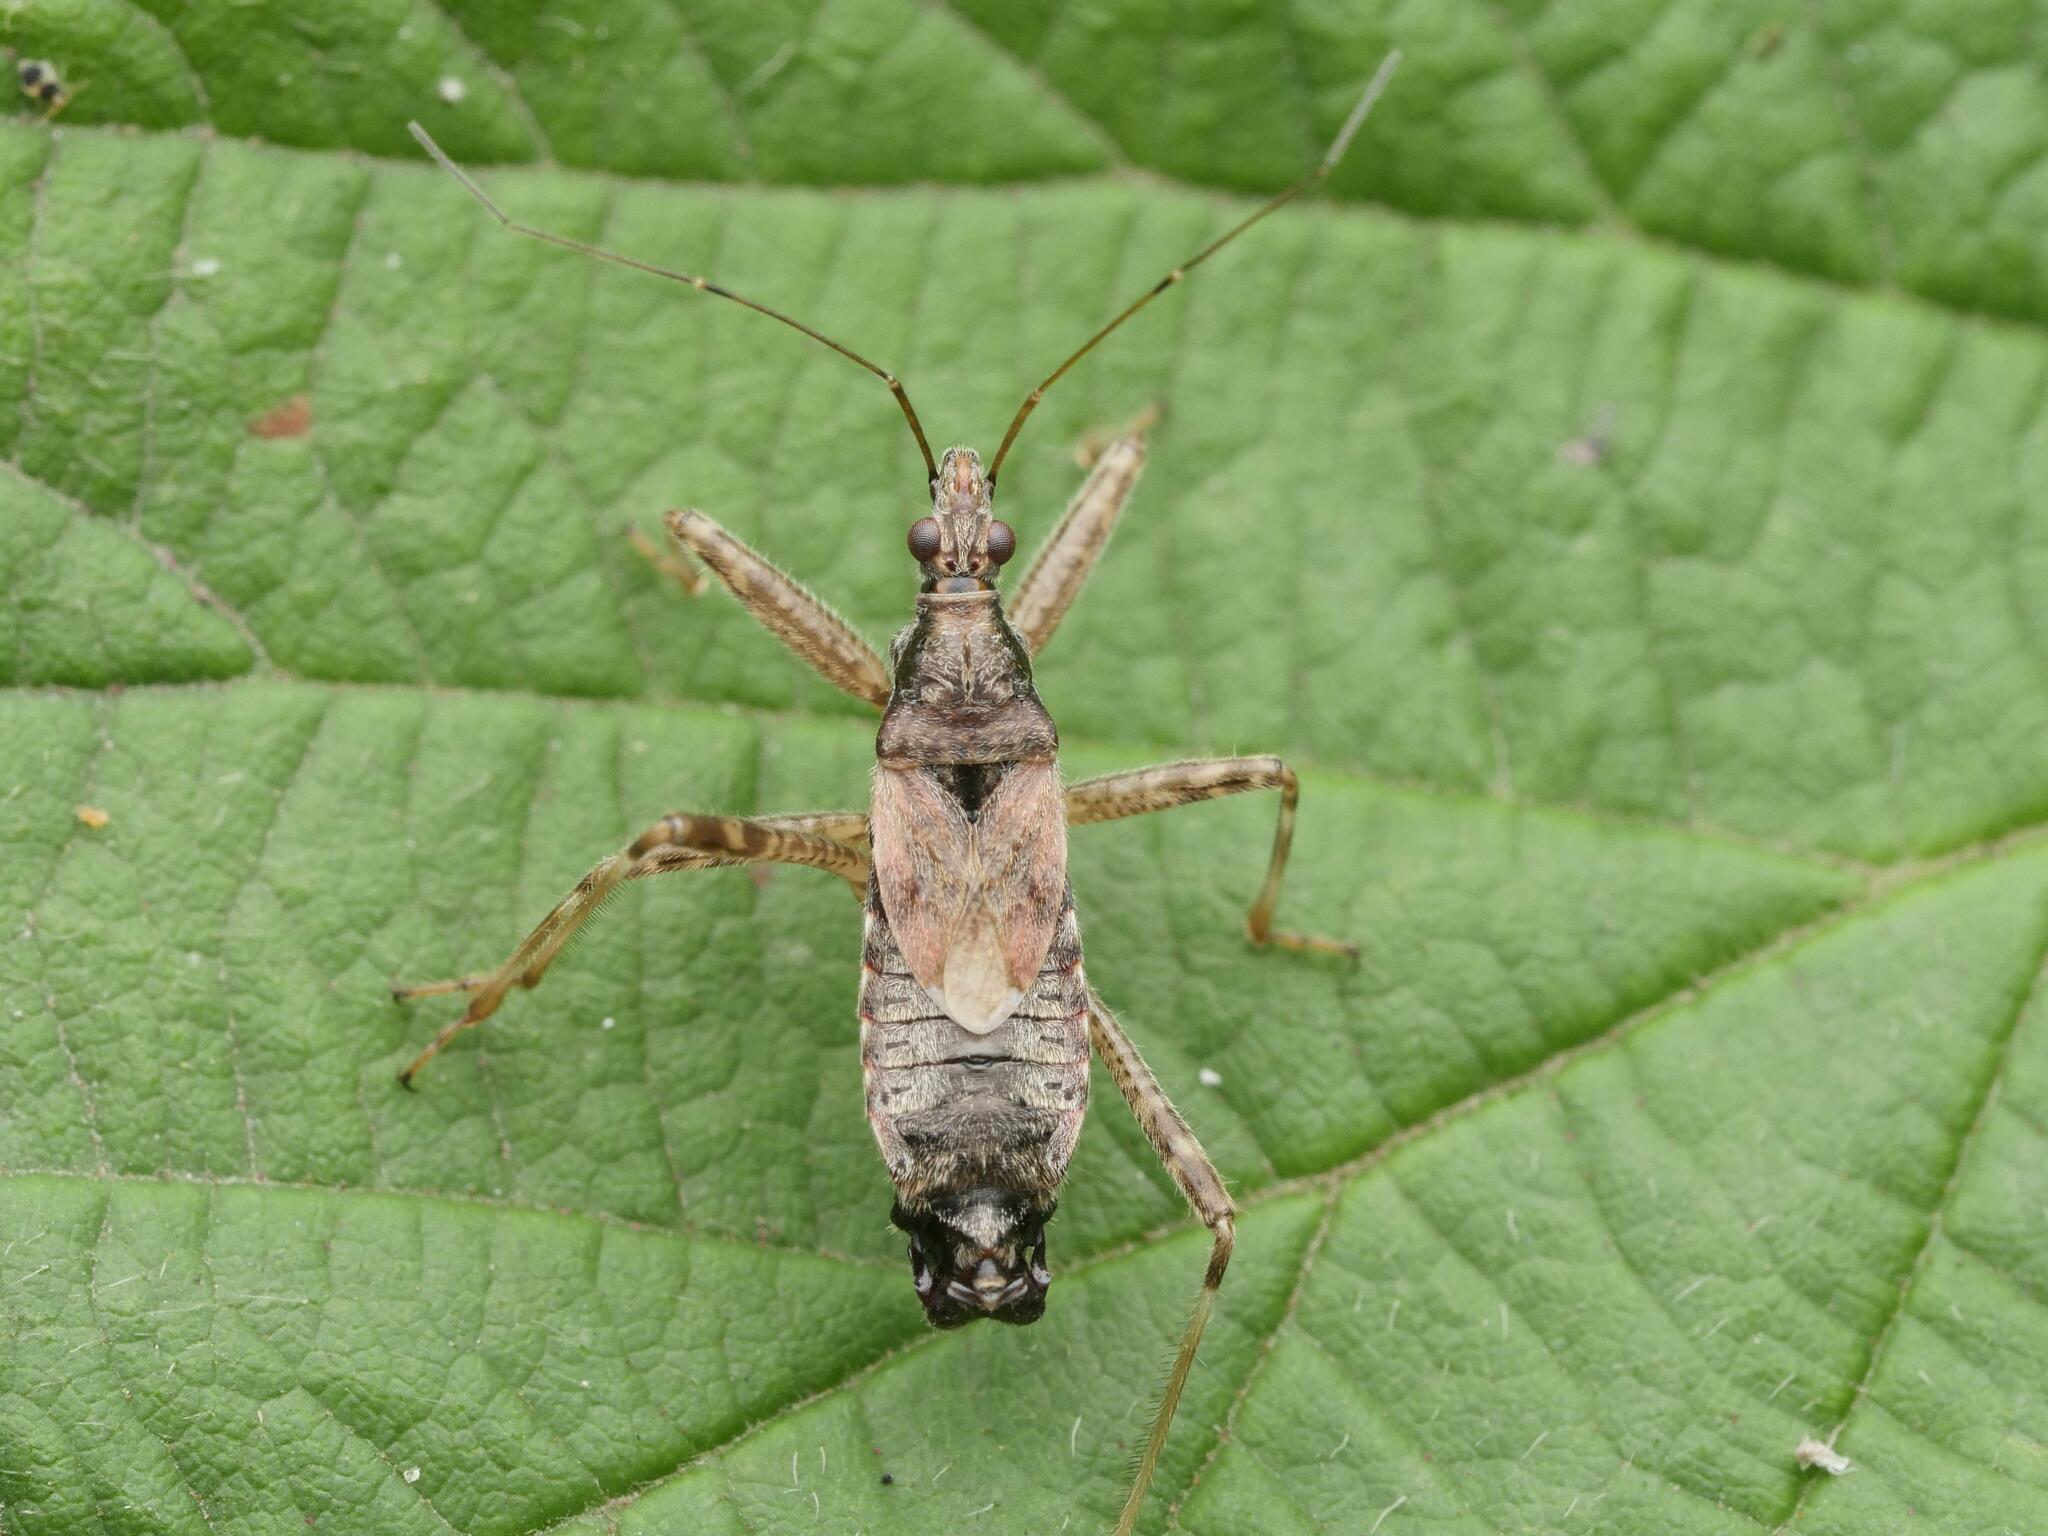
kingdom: Animalia
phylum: Arthropoda
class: Insecta
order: Hemiptera
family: Nabidae
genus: Himacerus
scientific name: Himacerus apterus
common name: Tree damsel bug
